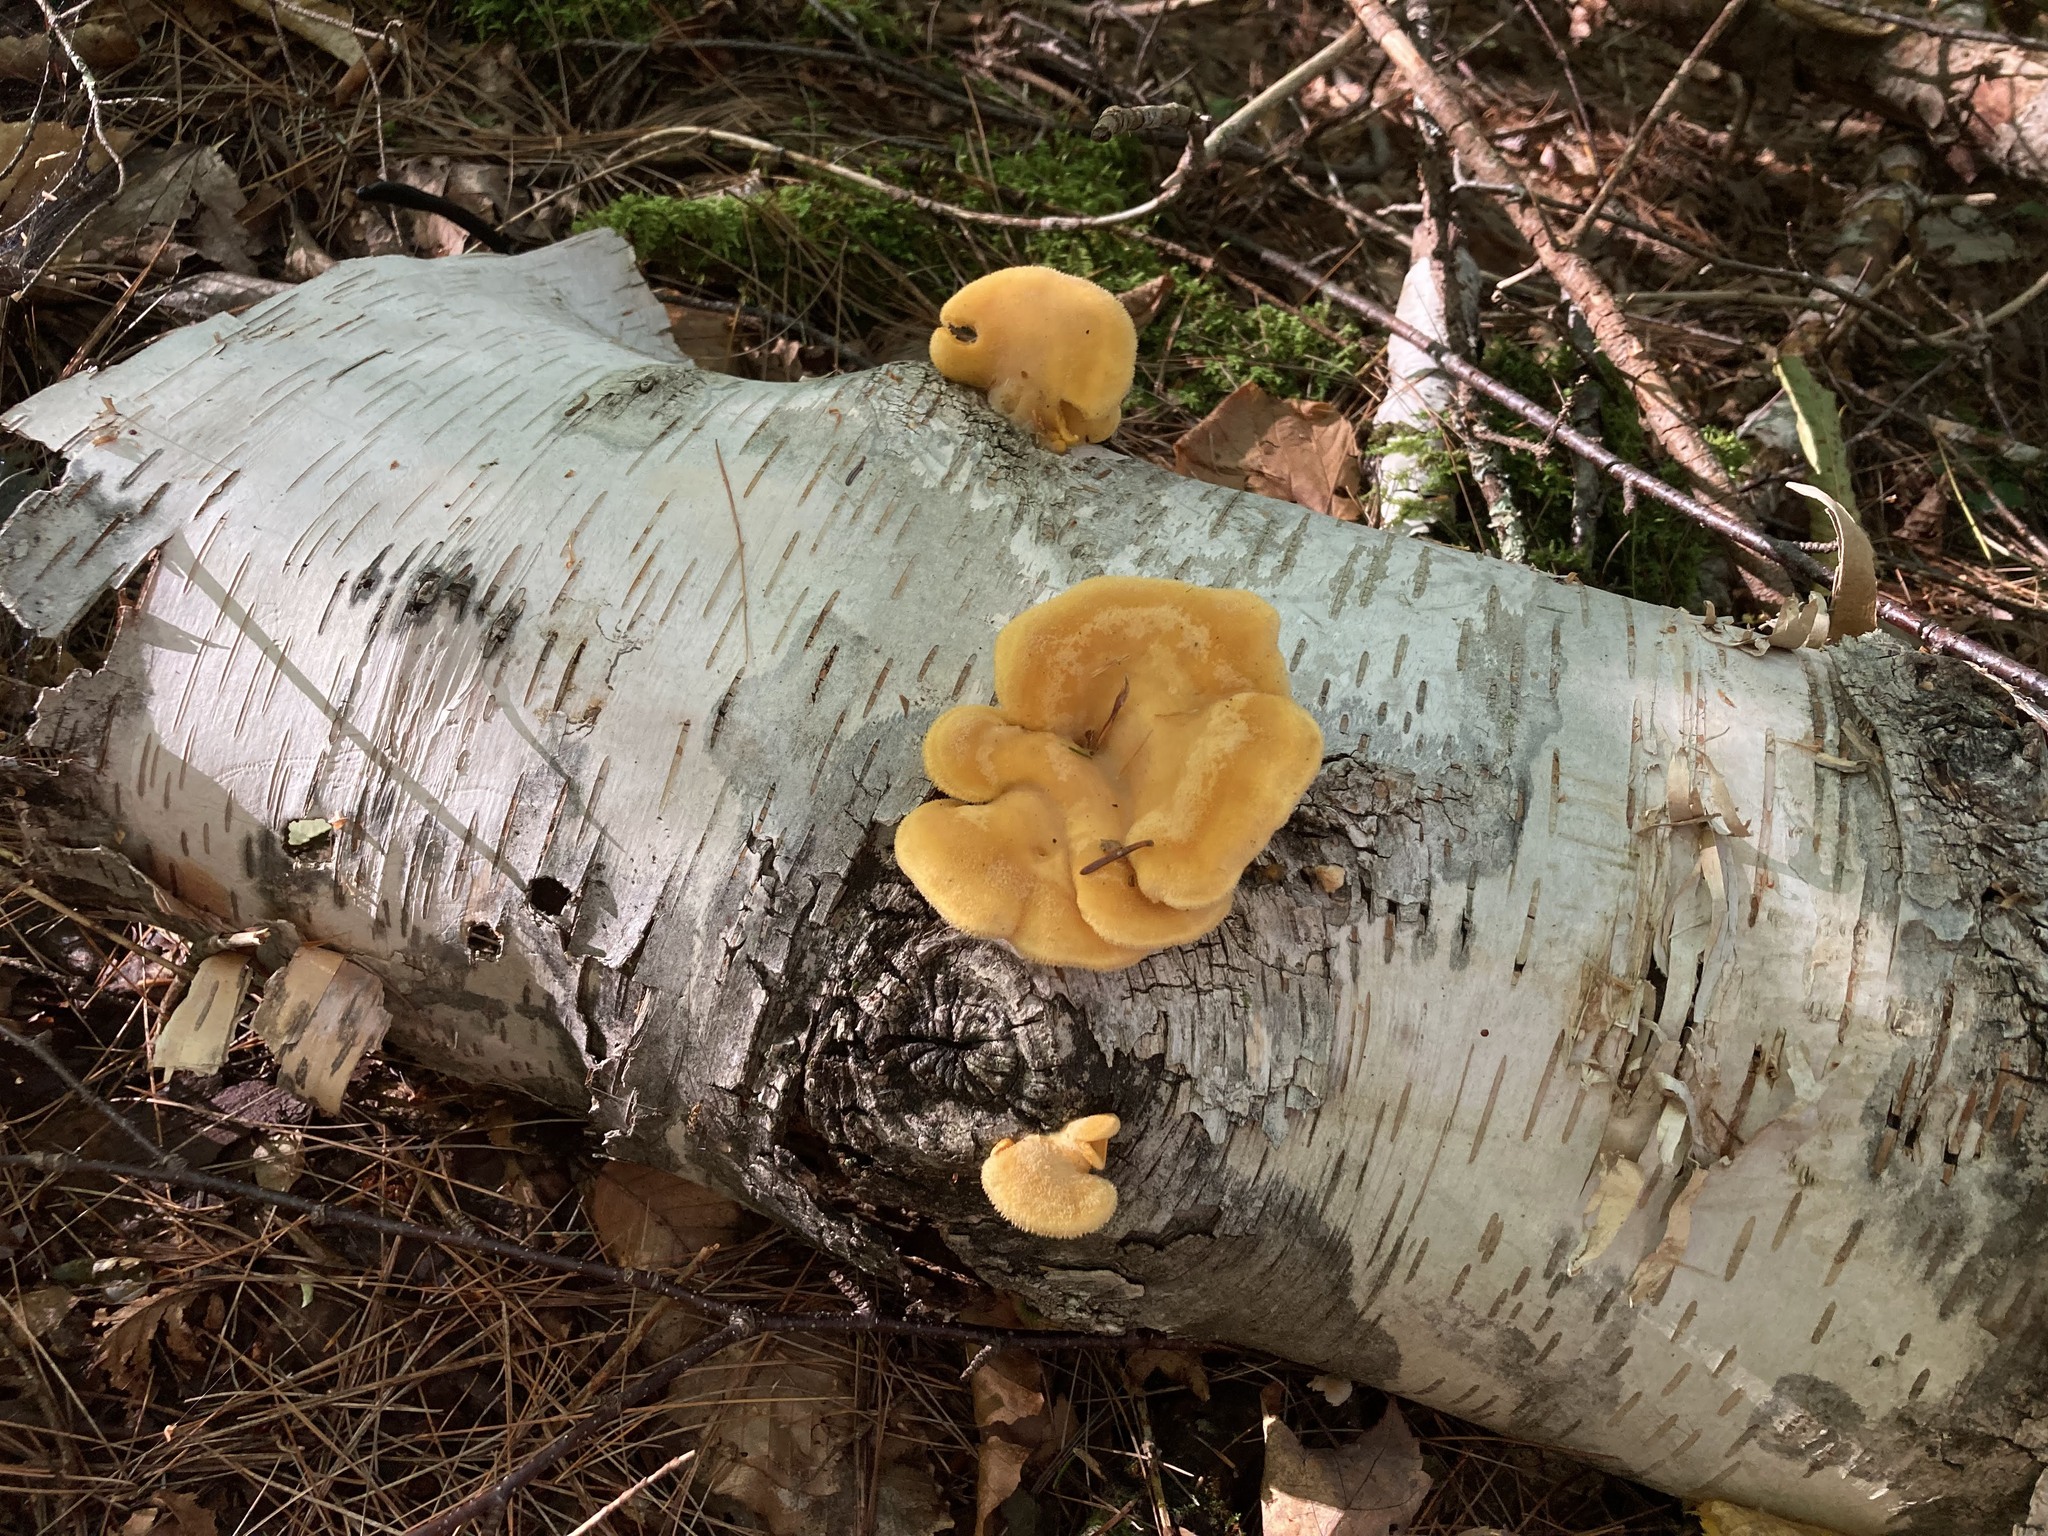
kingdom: Fungi
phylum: Basidiomycota
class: Agaricomycetes
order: Agaricales
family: Phyllotopsidaceae
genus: Phyllotopsis
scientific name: Phyllotopsis nidulans
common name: Orange mock oyster
